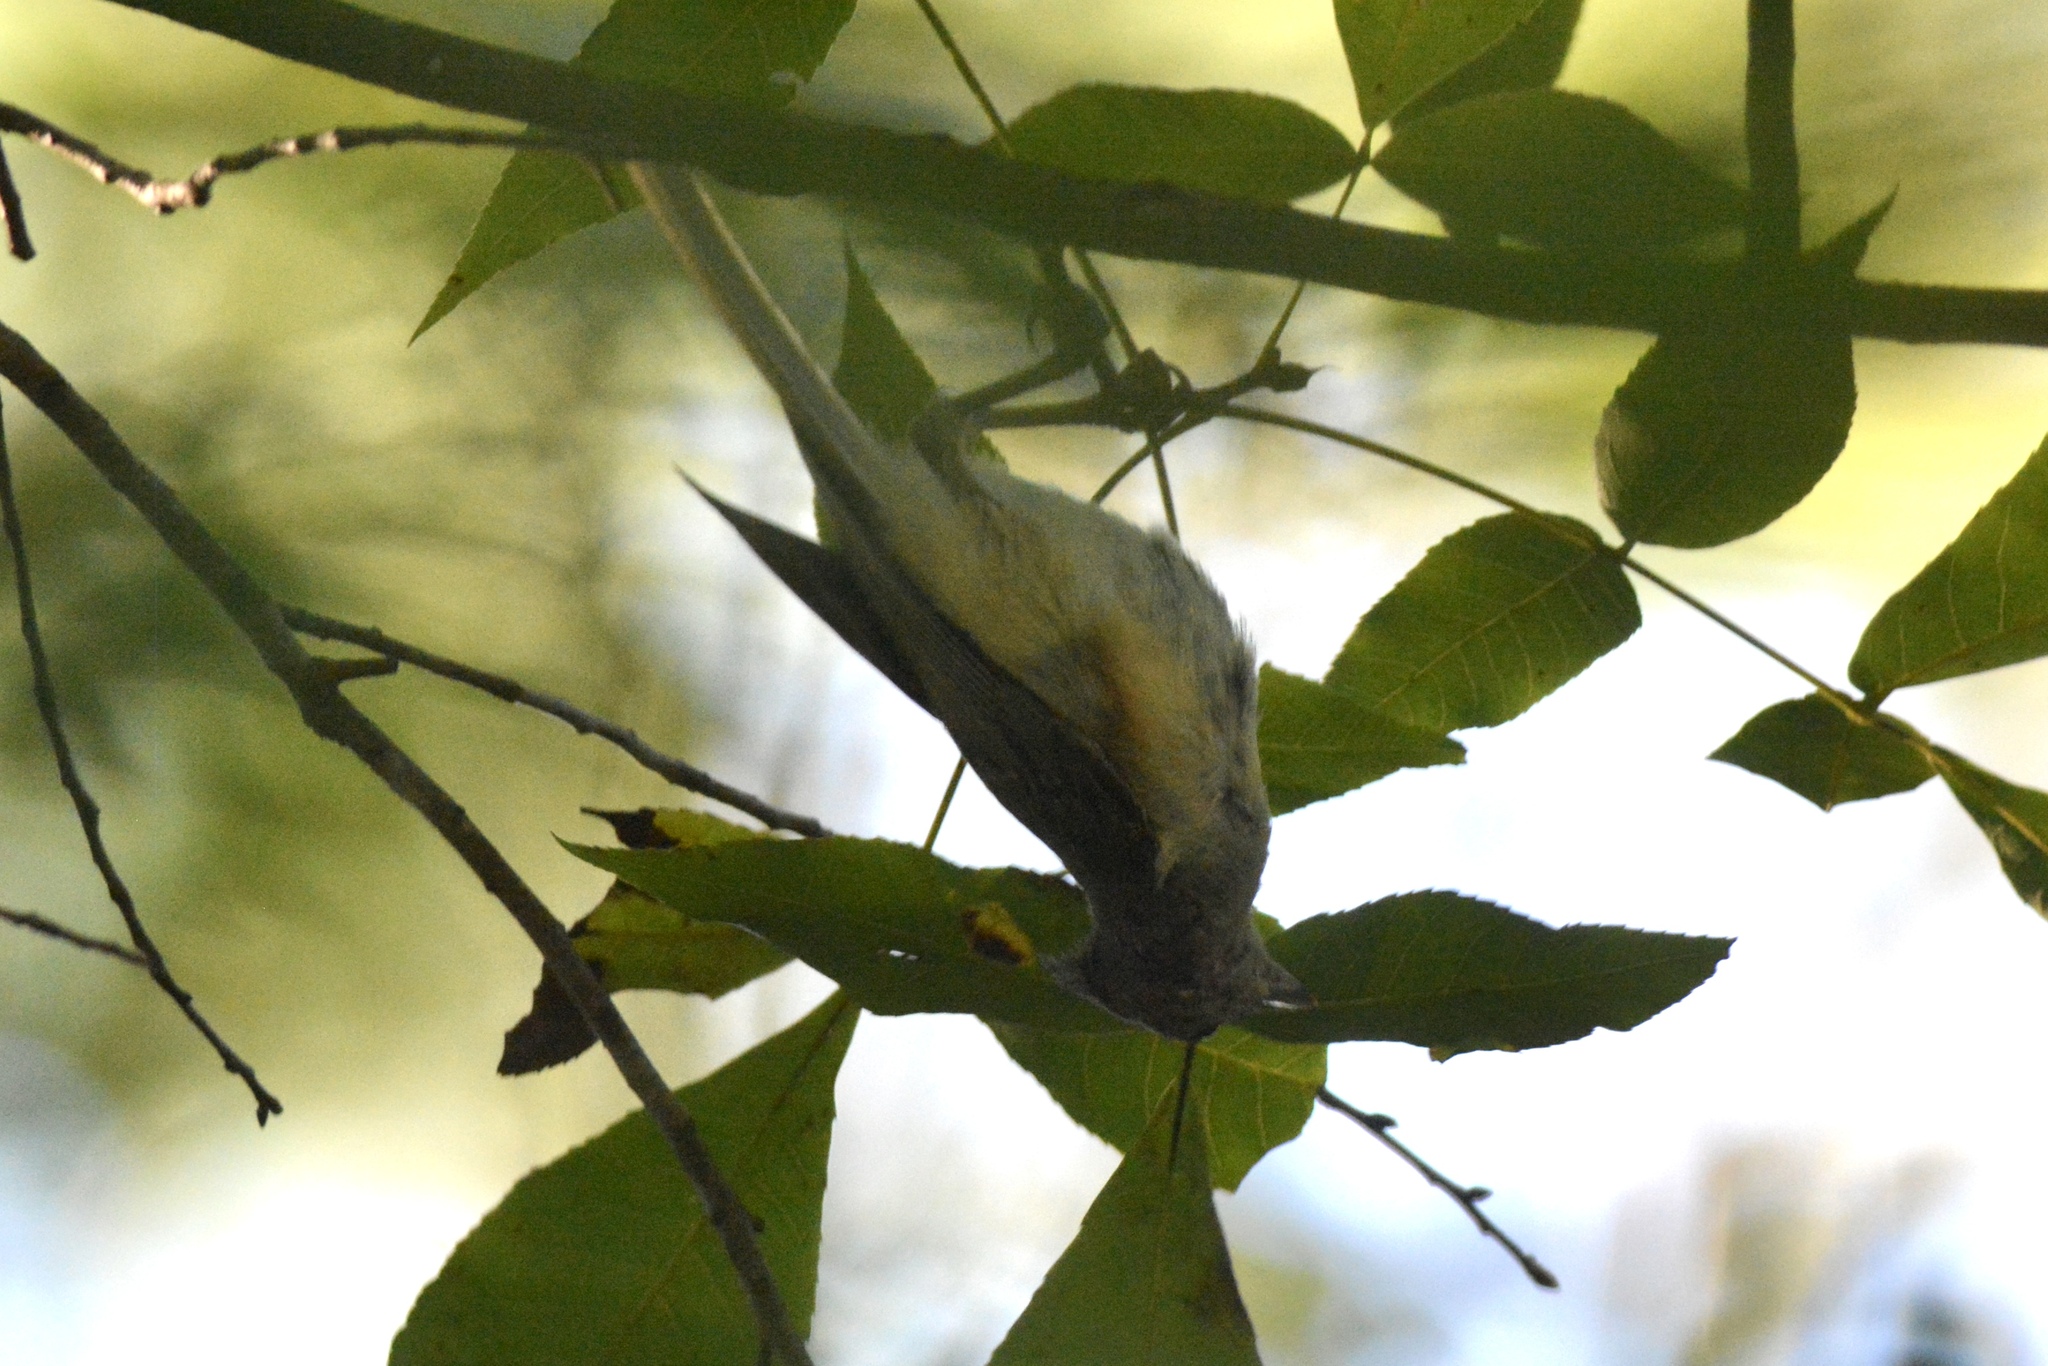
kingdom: Animalia
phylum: Chordata
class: Aves
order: Passeriformes
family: Paridae
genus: Baeolophus
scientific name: Baeolophus bicolor
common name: Tufted titmouse
